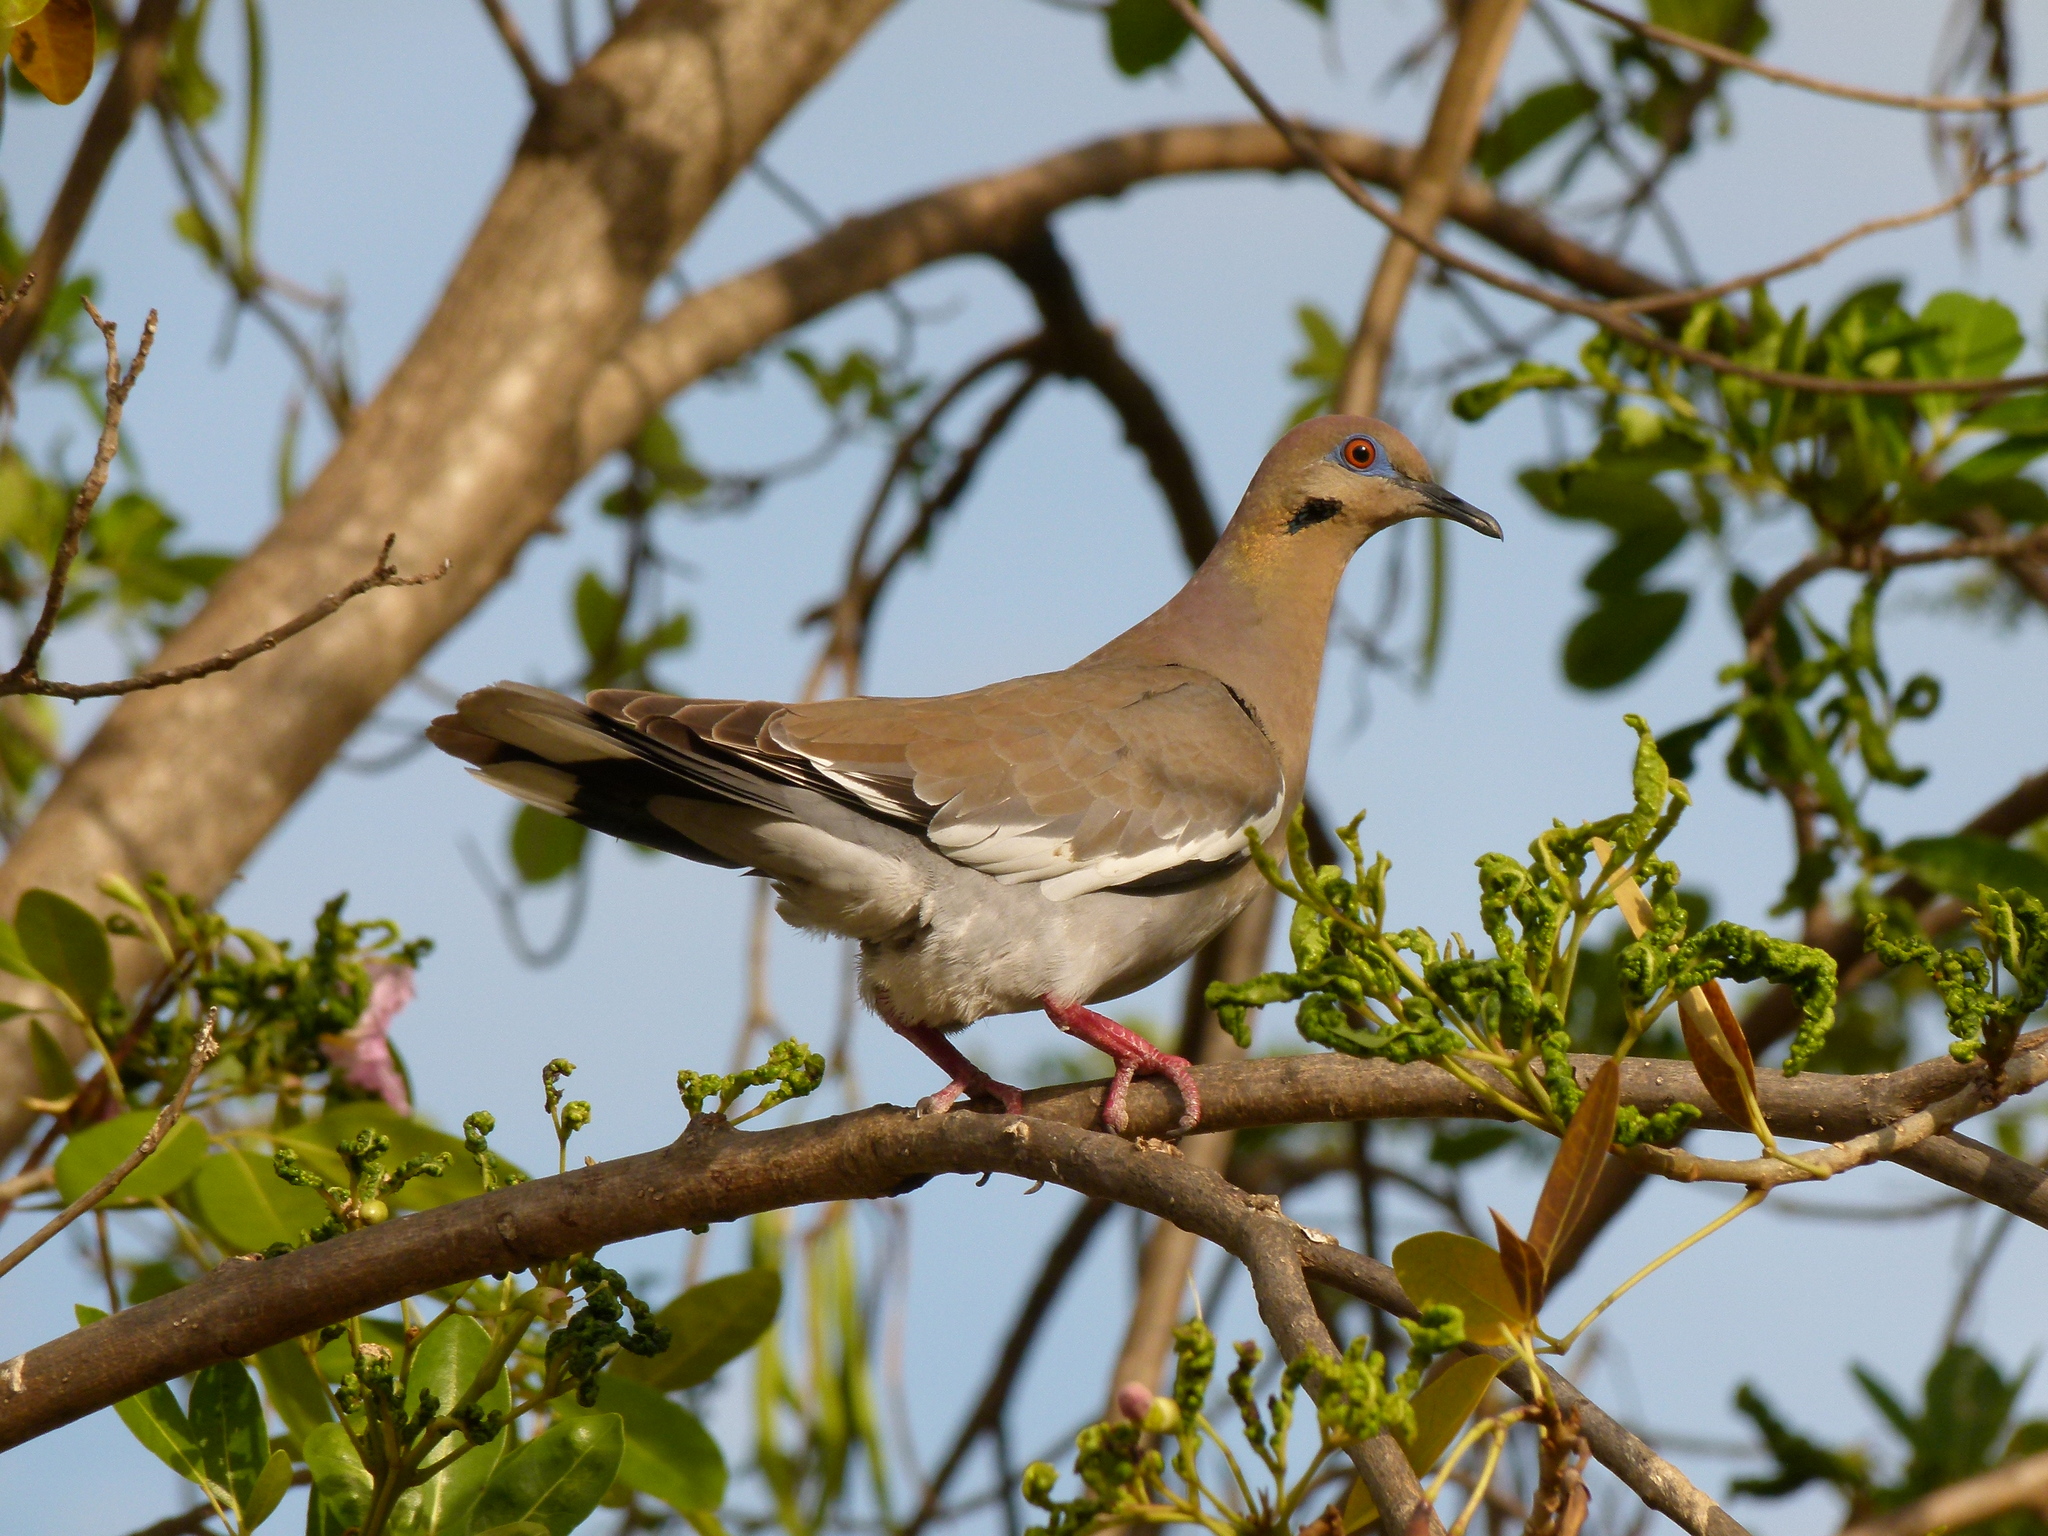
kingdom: Animalia
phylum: Chordata
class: Aves
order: Columbiformes
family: Columbidae
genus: Zenaida
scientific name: Zenaida asiatica
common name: White-winged dove
